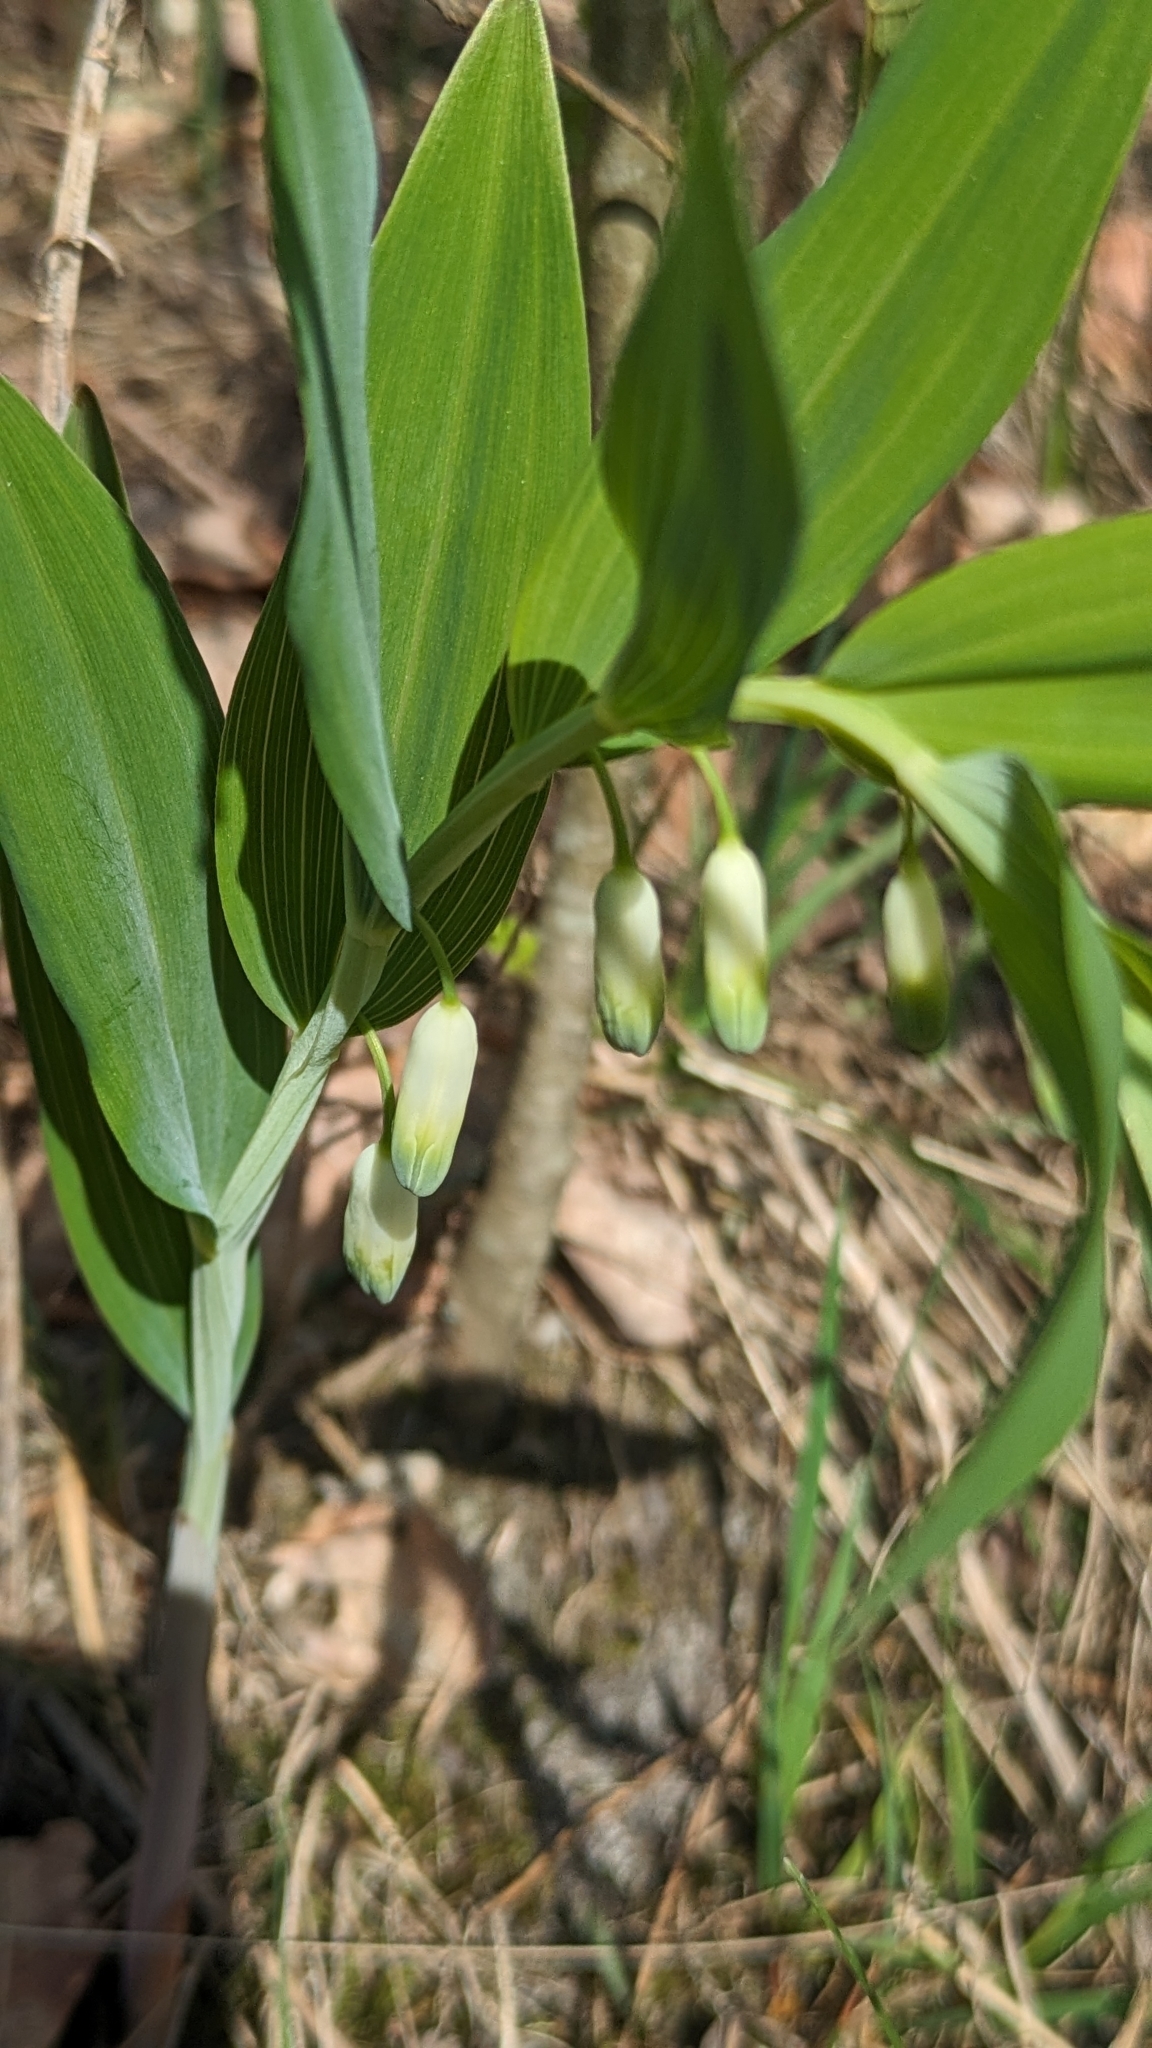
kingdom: Plantae
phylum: Tracheophyta
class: Liliopsida
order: Asparagales
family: Asparagaceae
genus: Polygonatum
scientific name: Polygonatum odoratum
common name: Angular solomon's-seal
